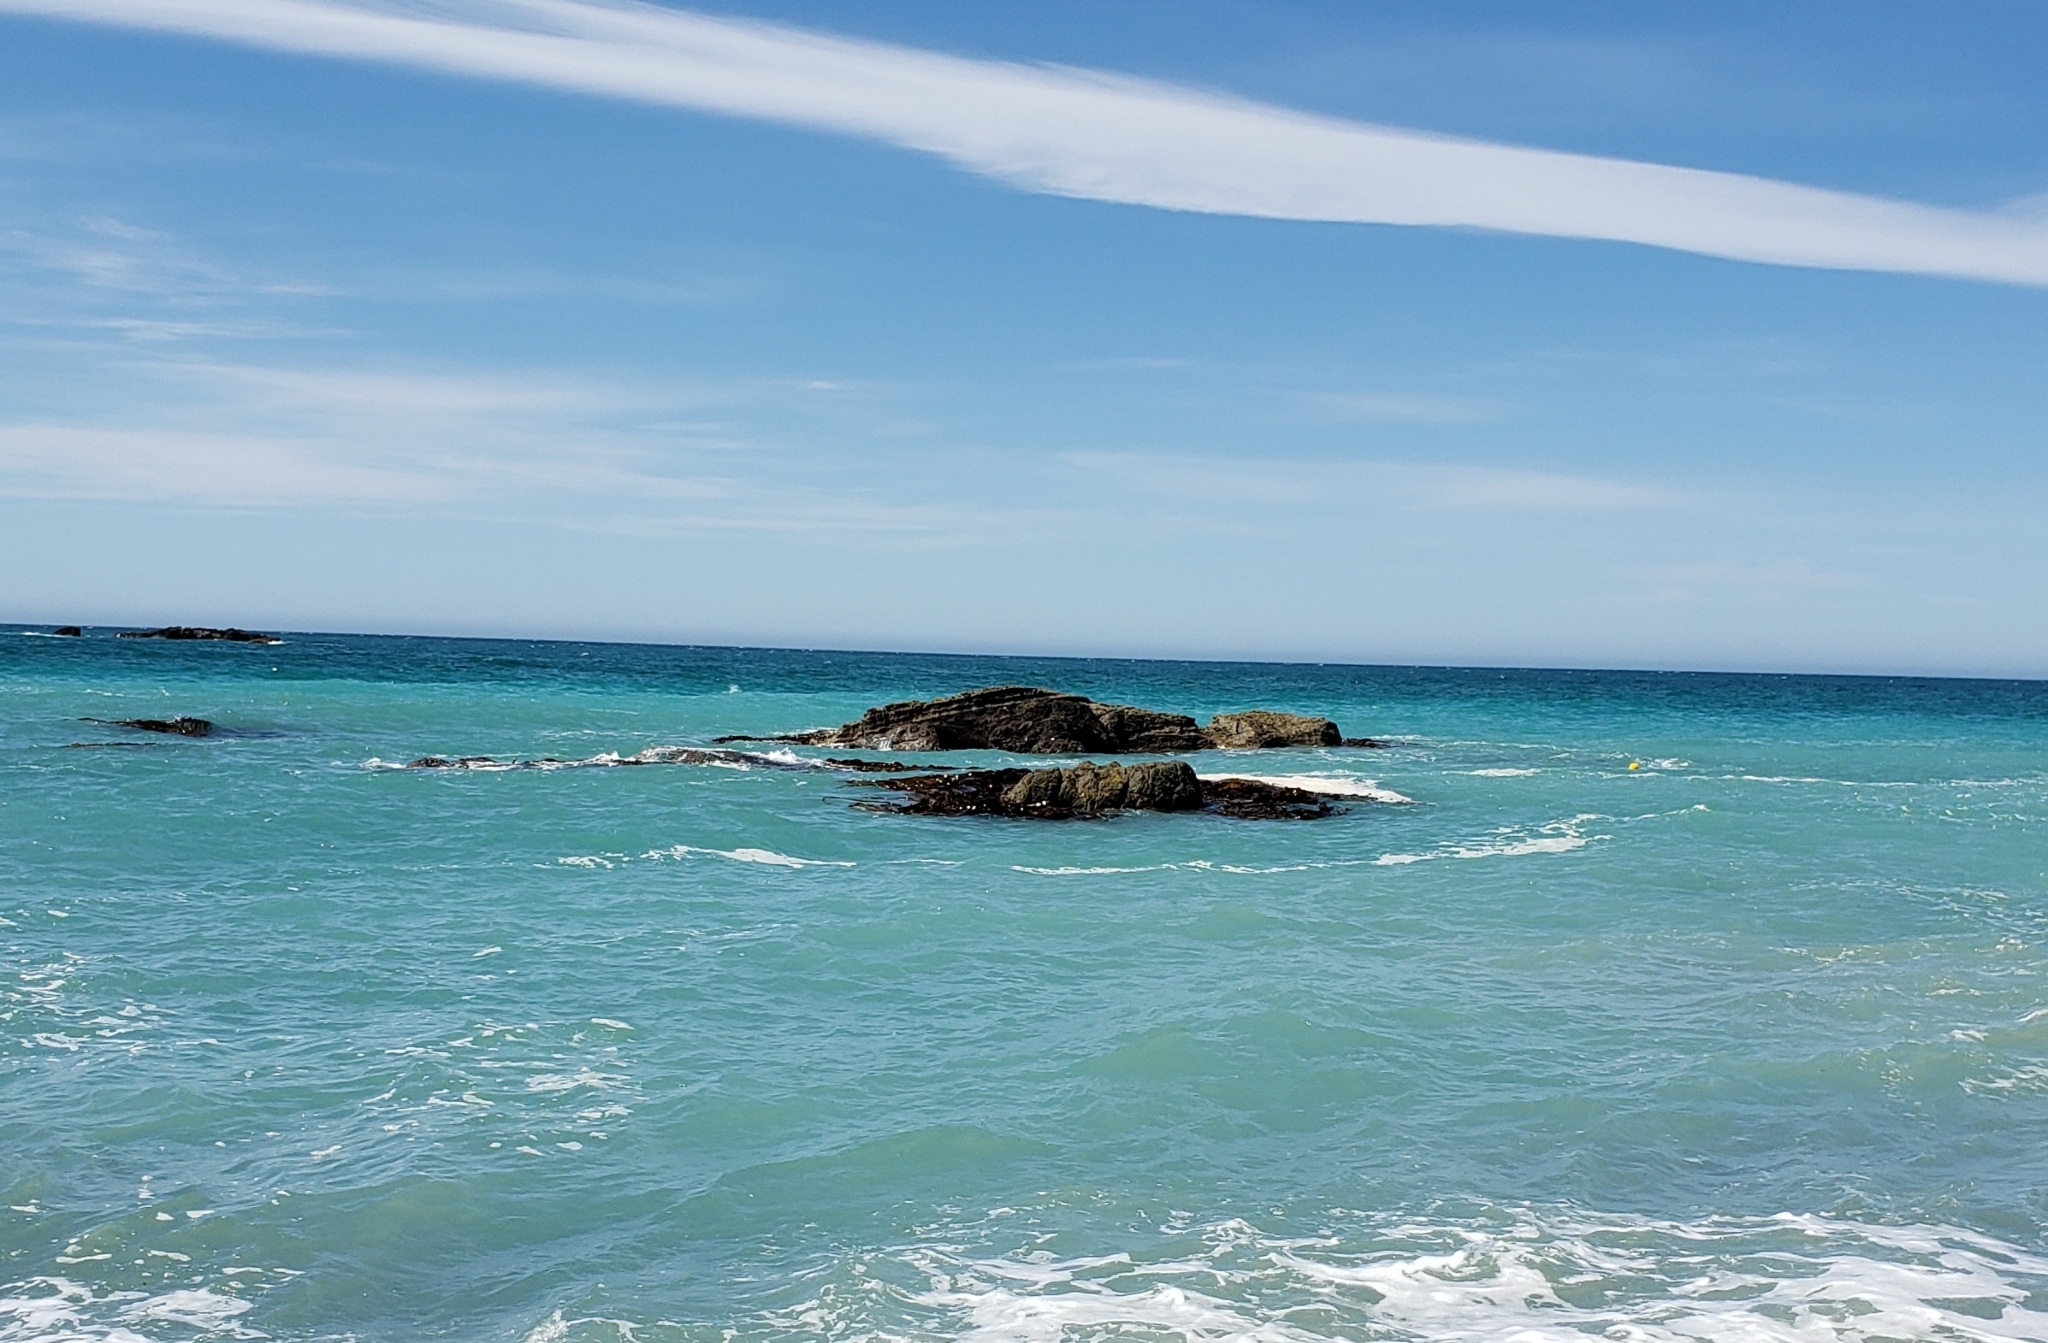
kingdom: Chromista
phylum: Ochrophyta
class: Phaeophyceae
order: Fucales
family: Durvillaeaceae
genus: Durvillaea
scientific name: Durvillaea antarctica
